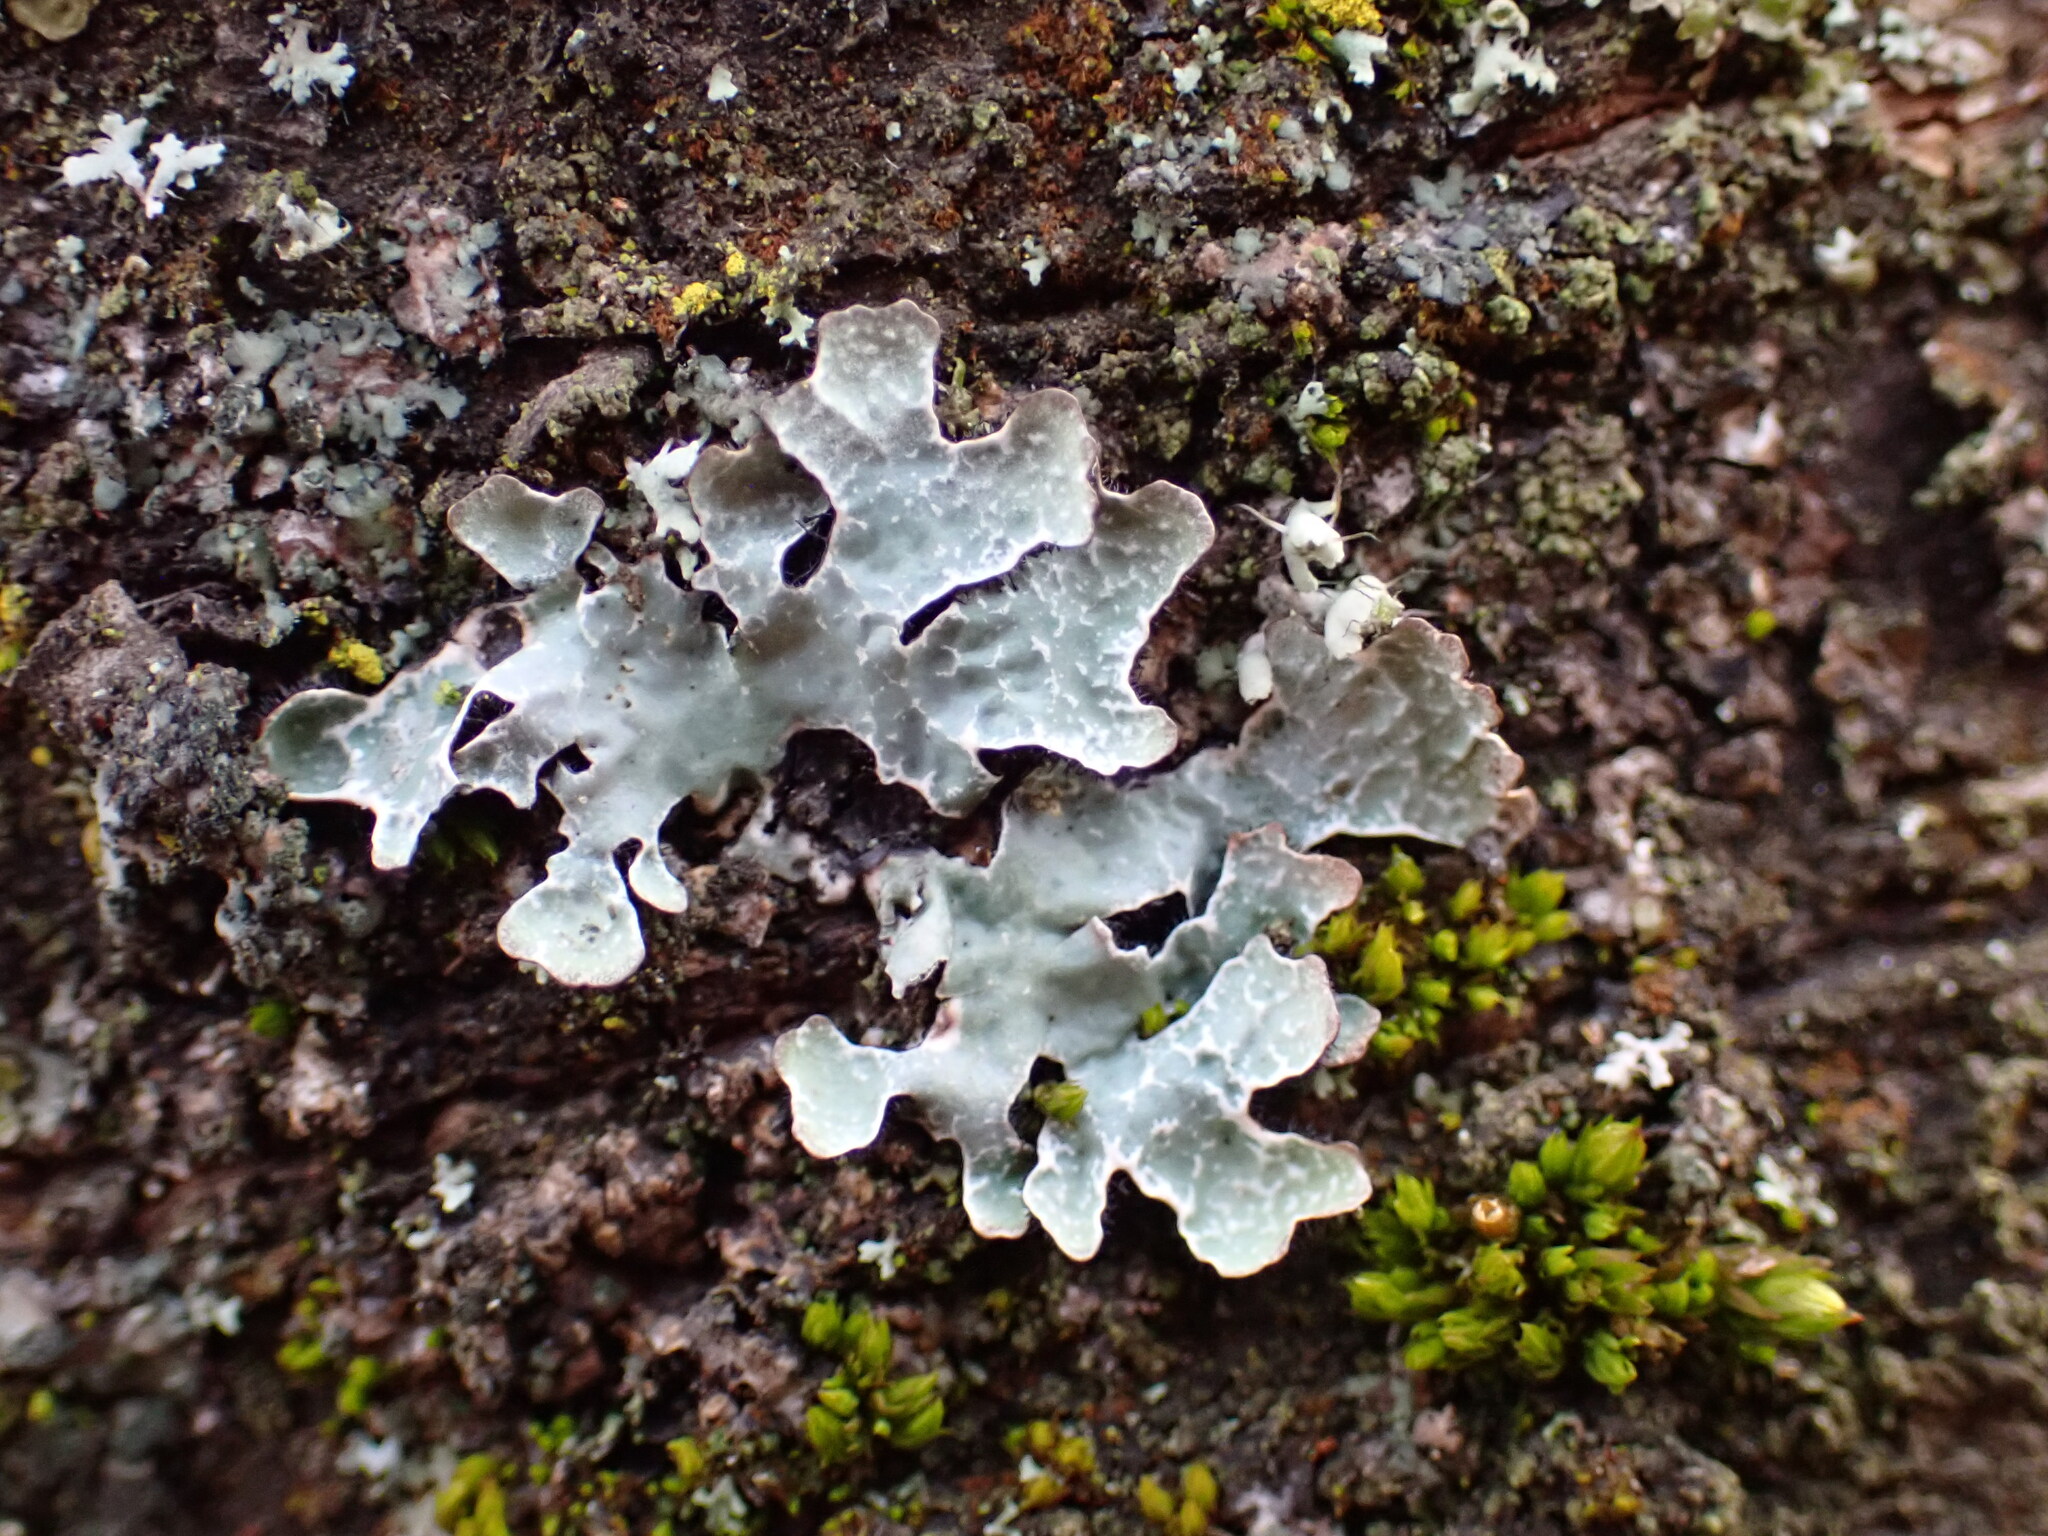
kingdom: Fungi
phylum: Ascomycota
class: Lecanoromycetes
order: Lecanorales
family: Parmeliaceae
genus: Parmelia
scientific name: Parmelia sulcata
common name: Netted shield lichen
